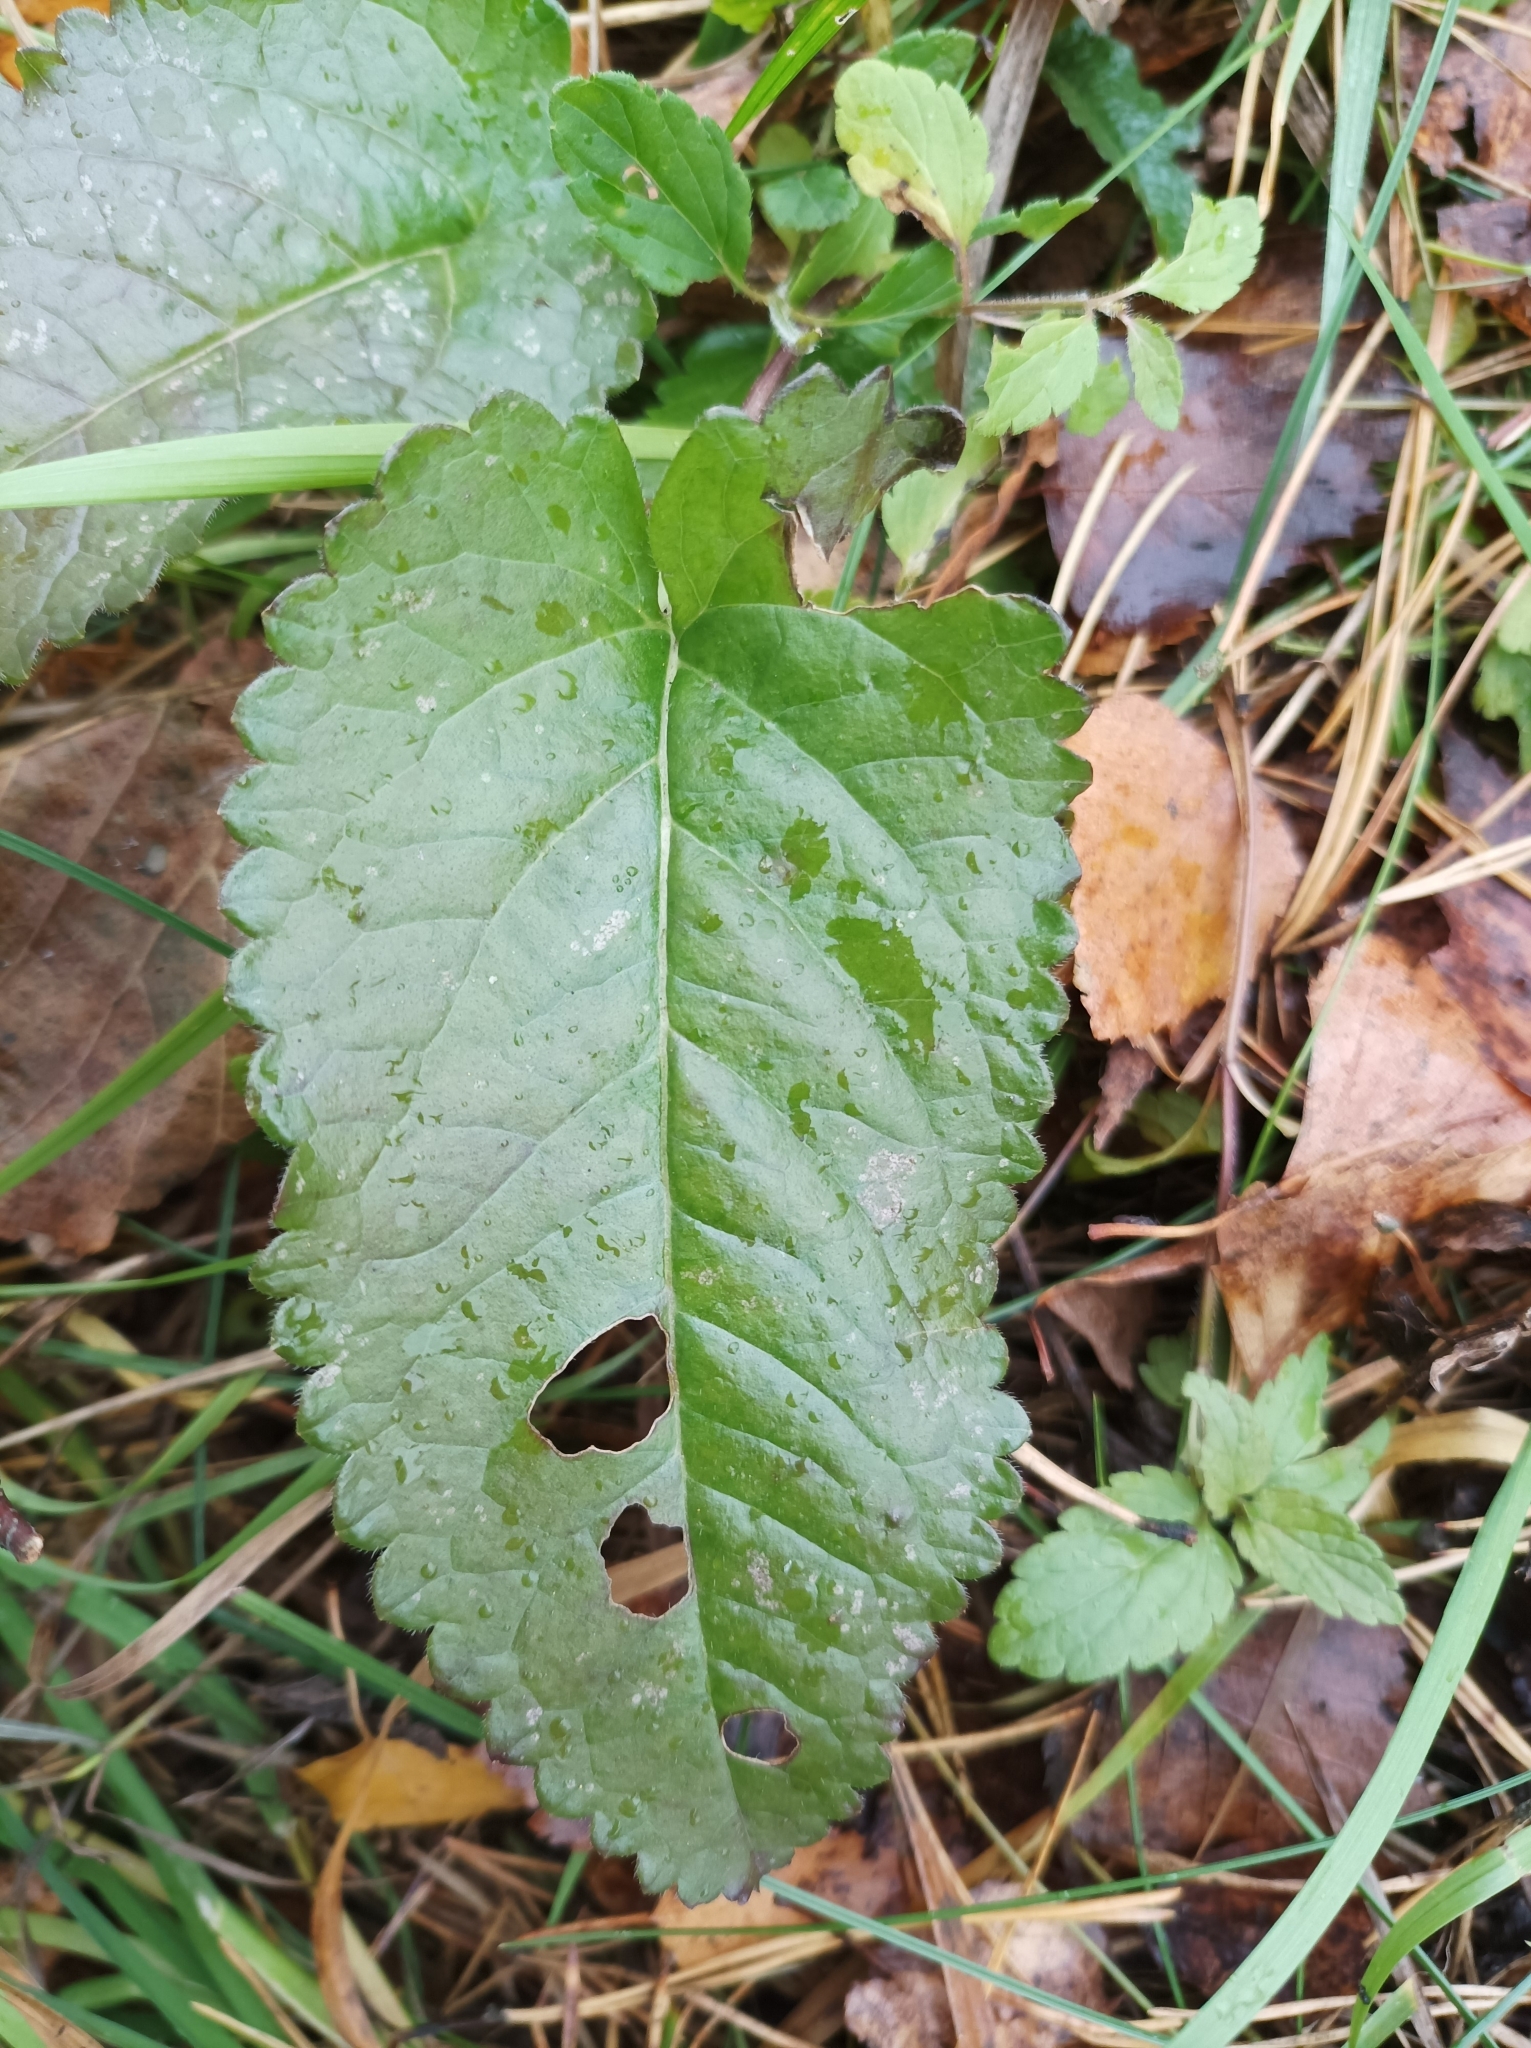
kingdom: Plantae
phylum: Tracheophyta
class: Magnoliopsida
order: Lamiales
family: Lamiaceae
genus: Betonica
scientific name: Betonica officinalis
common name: Bishop's-wort
